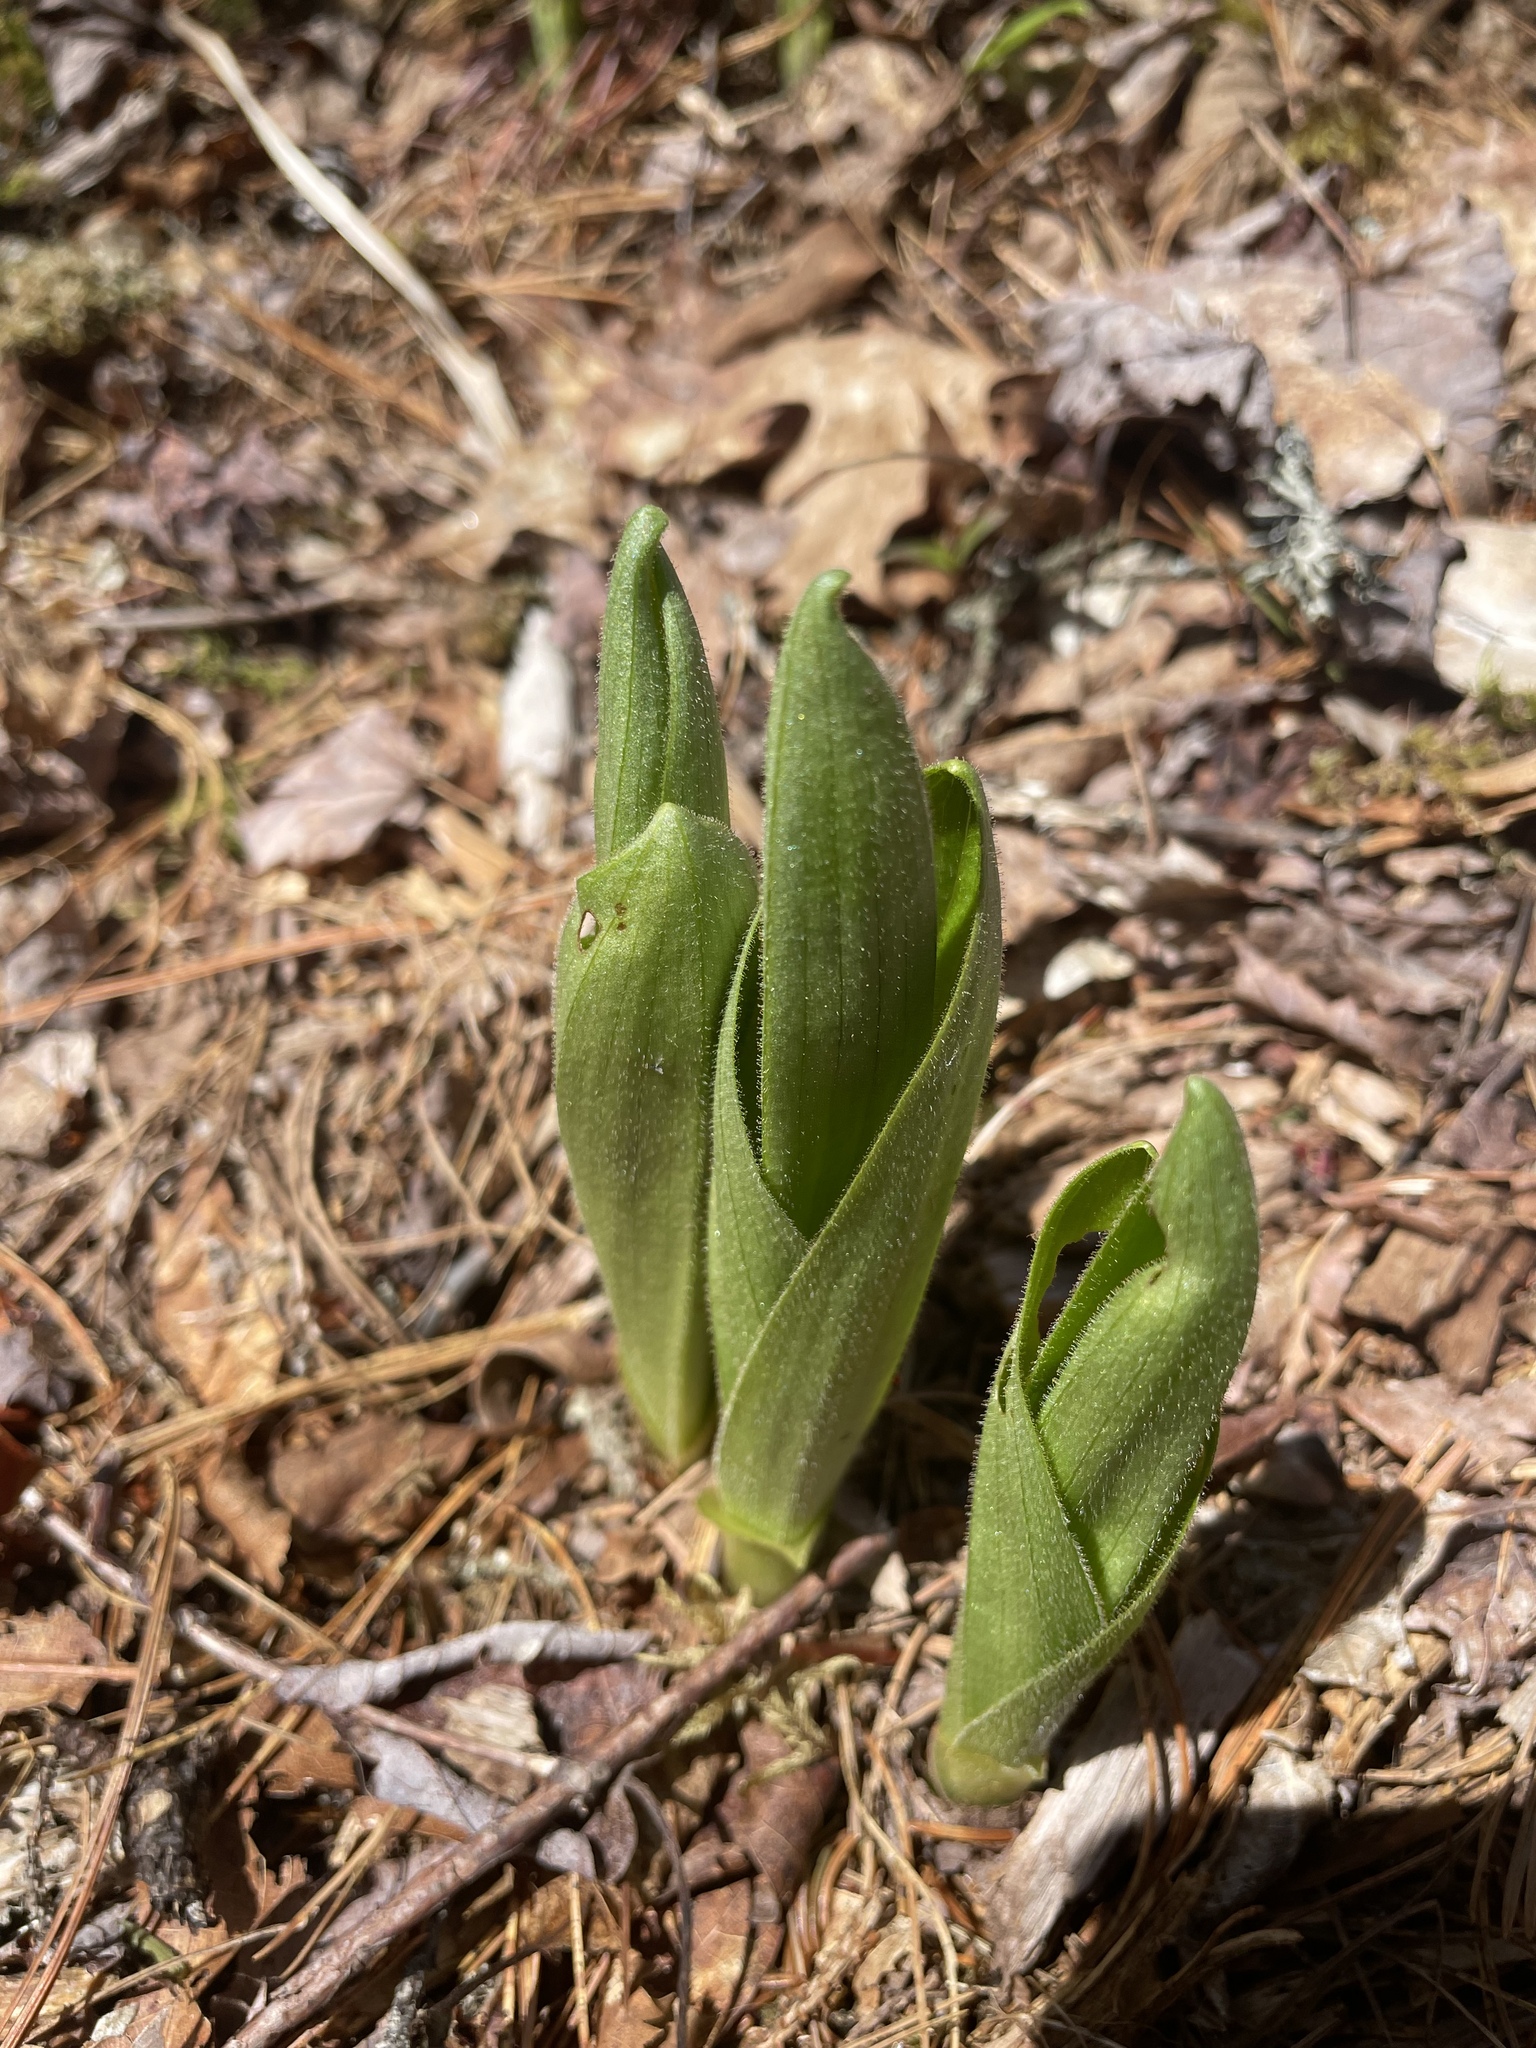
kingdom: Plantae
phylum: Tracheophyta
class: Liliopsida
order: Asparagales
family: Orchidaceae
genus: Cypripedium
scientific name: Cypripedium acaule
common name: Pink lady's-slipper
